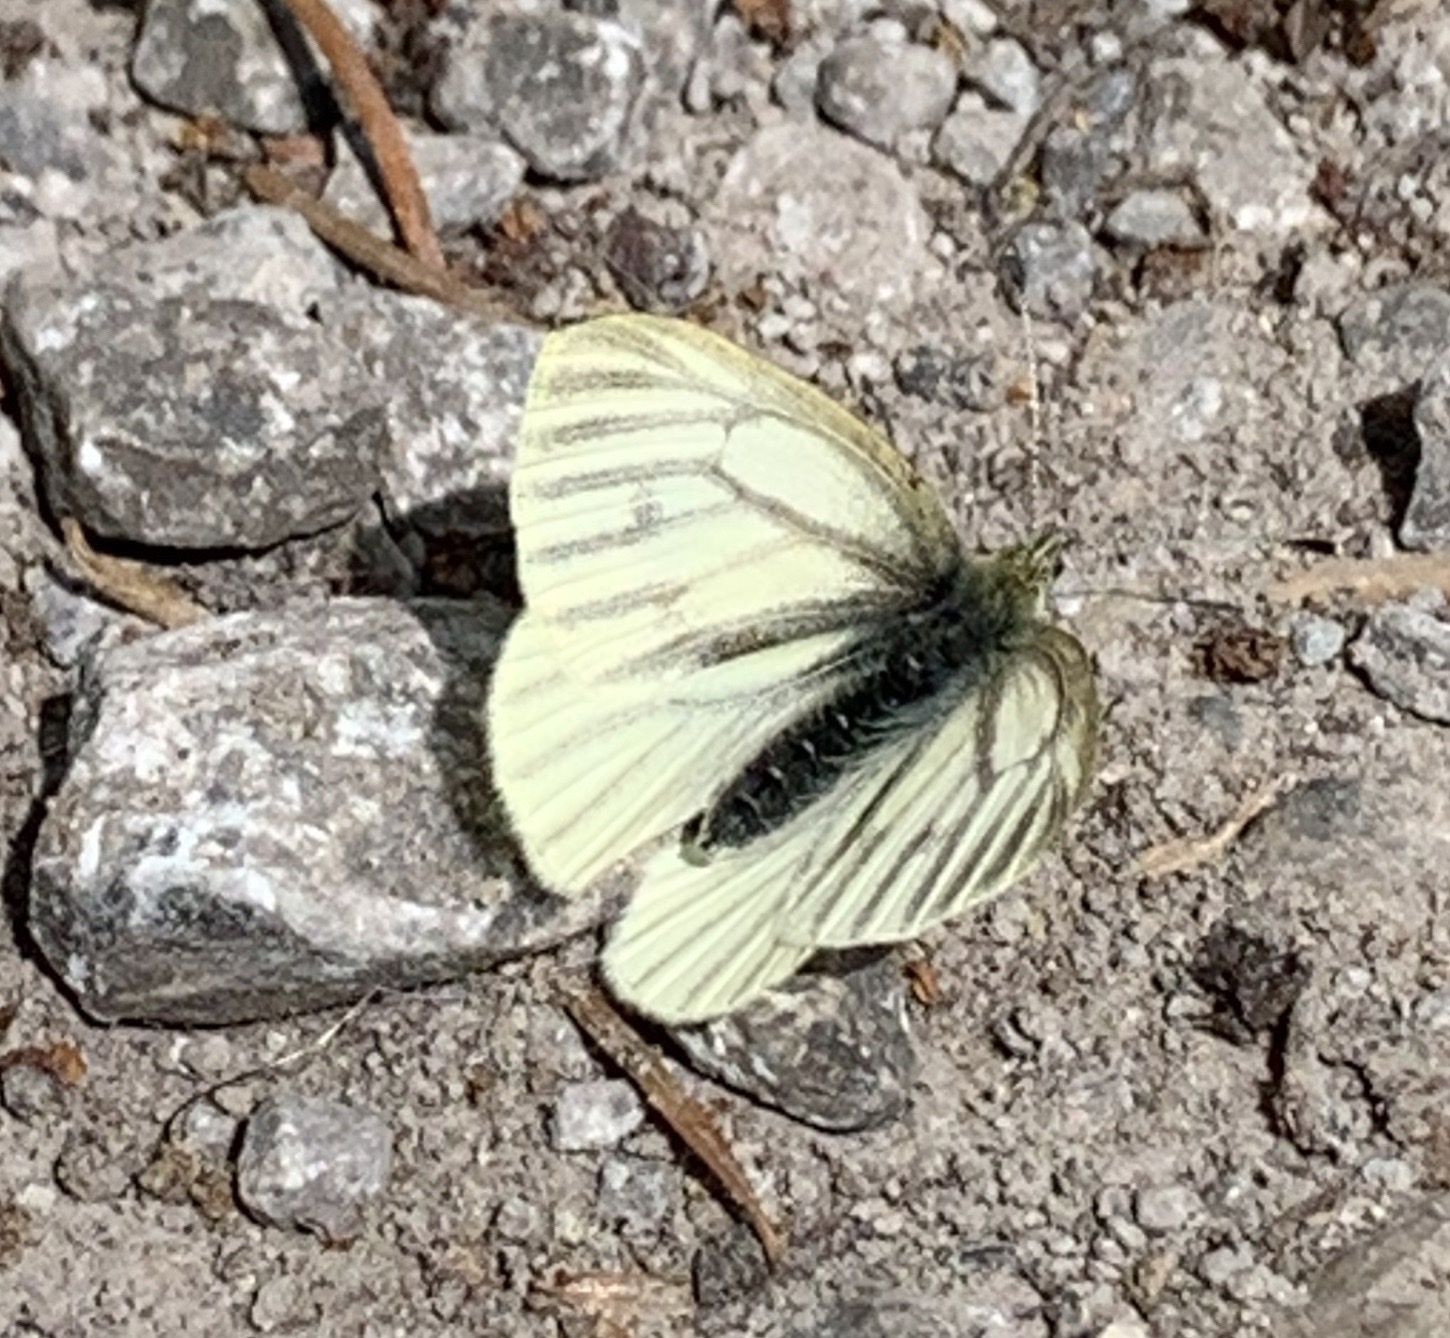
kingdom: Animalia
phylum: Arthropoda
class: Insecta
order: Lepidoptera
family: Pieridae
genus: Pieris
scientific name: Pieris marginalis
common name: Margined white
